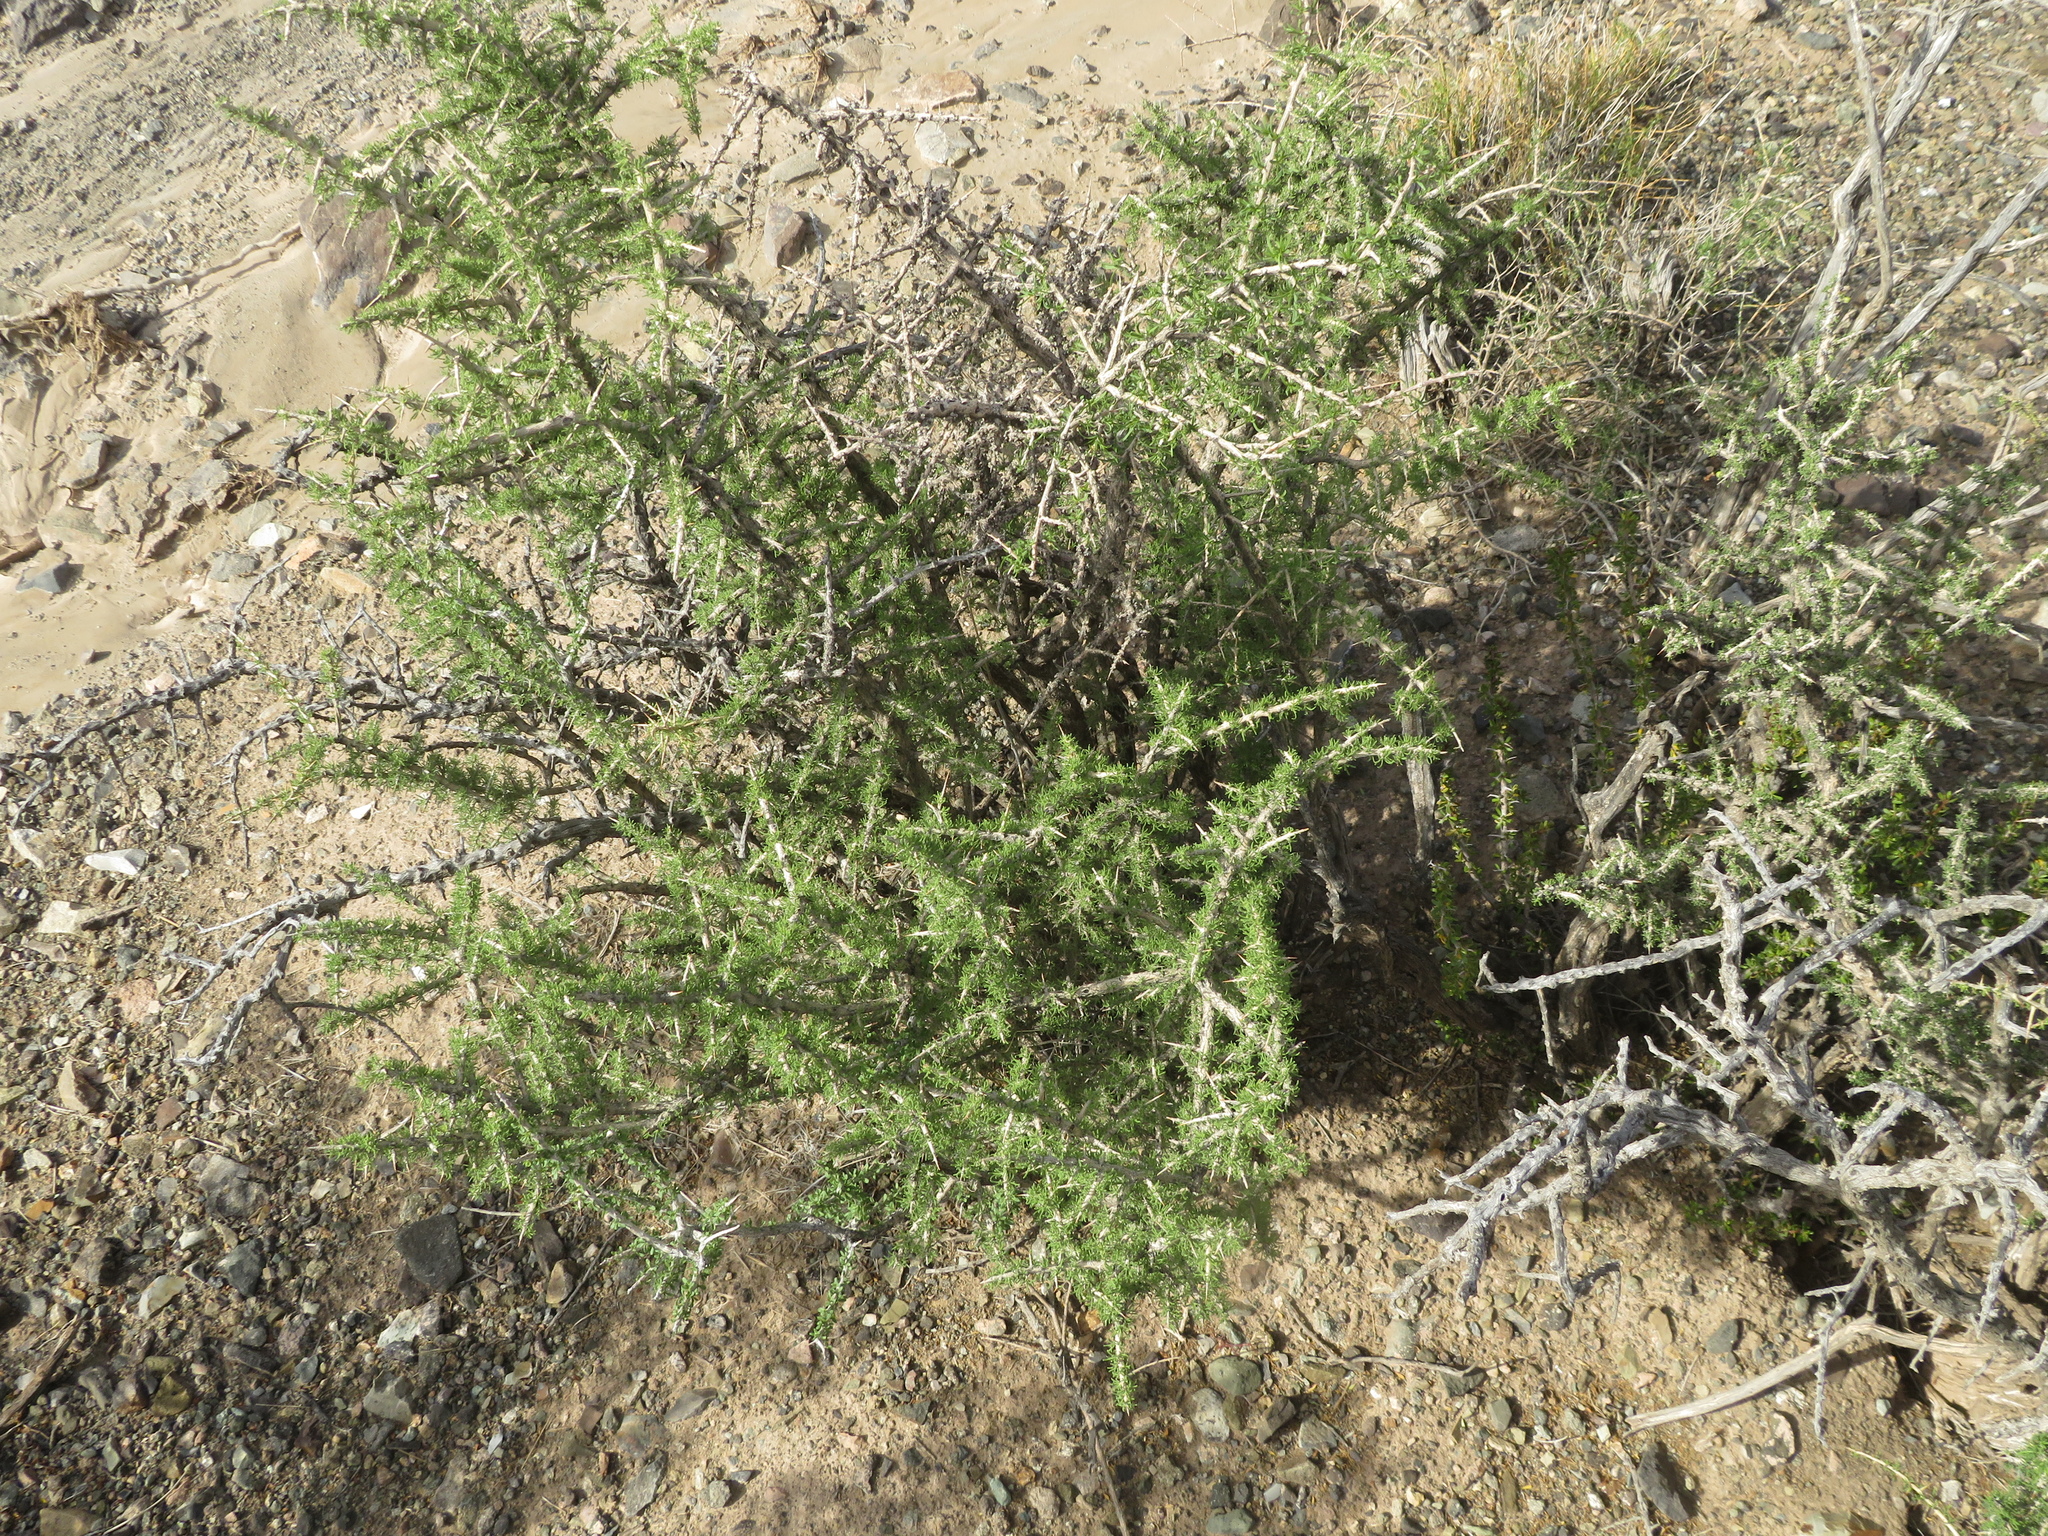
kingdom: Plantae
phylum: Tracheophyta
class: Magnoliopsida
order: Solanales
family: Solanaceae
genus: Lycium
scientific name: Lycium infaustum
